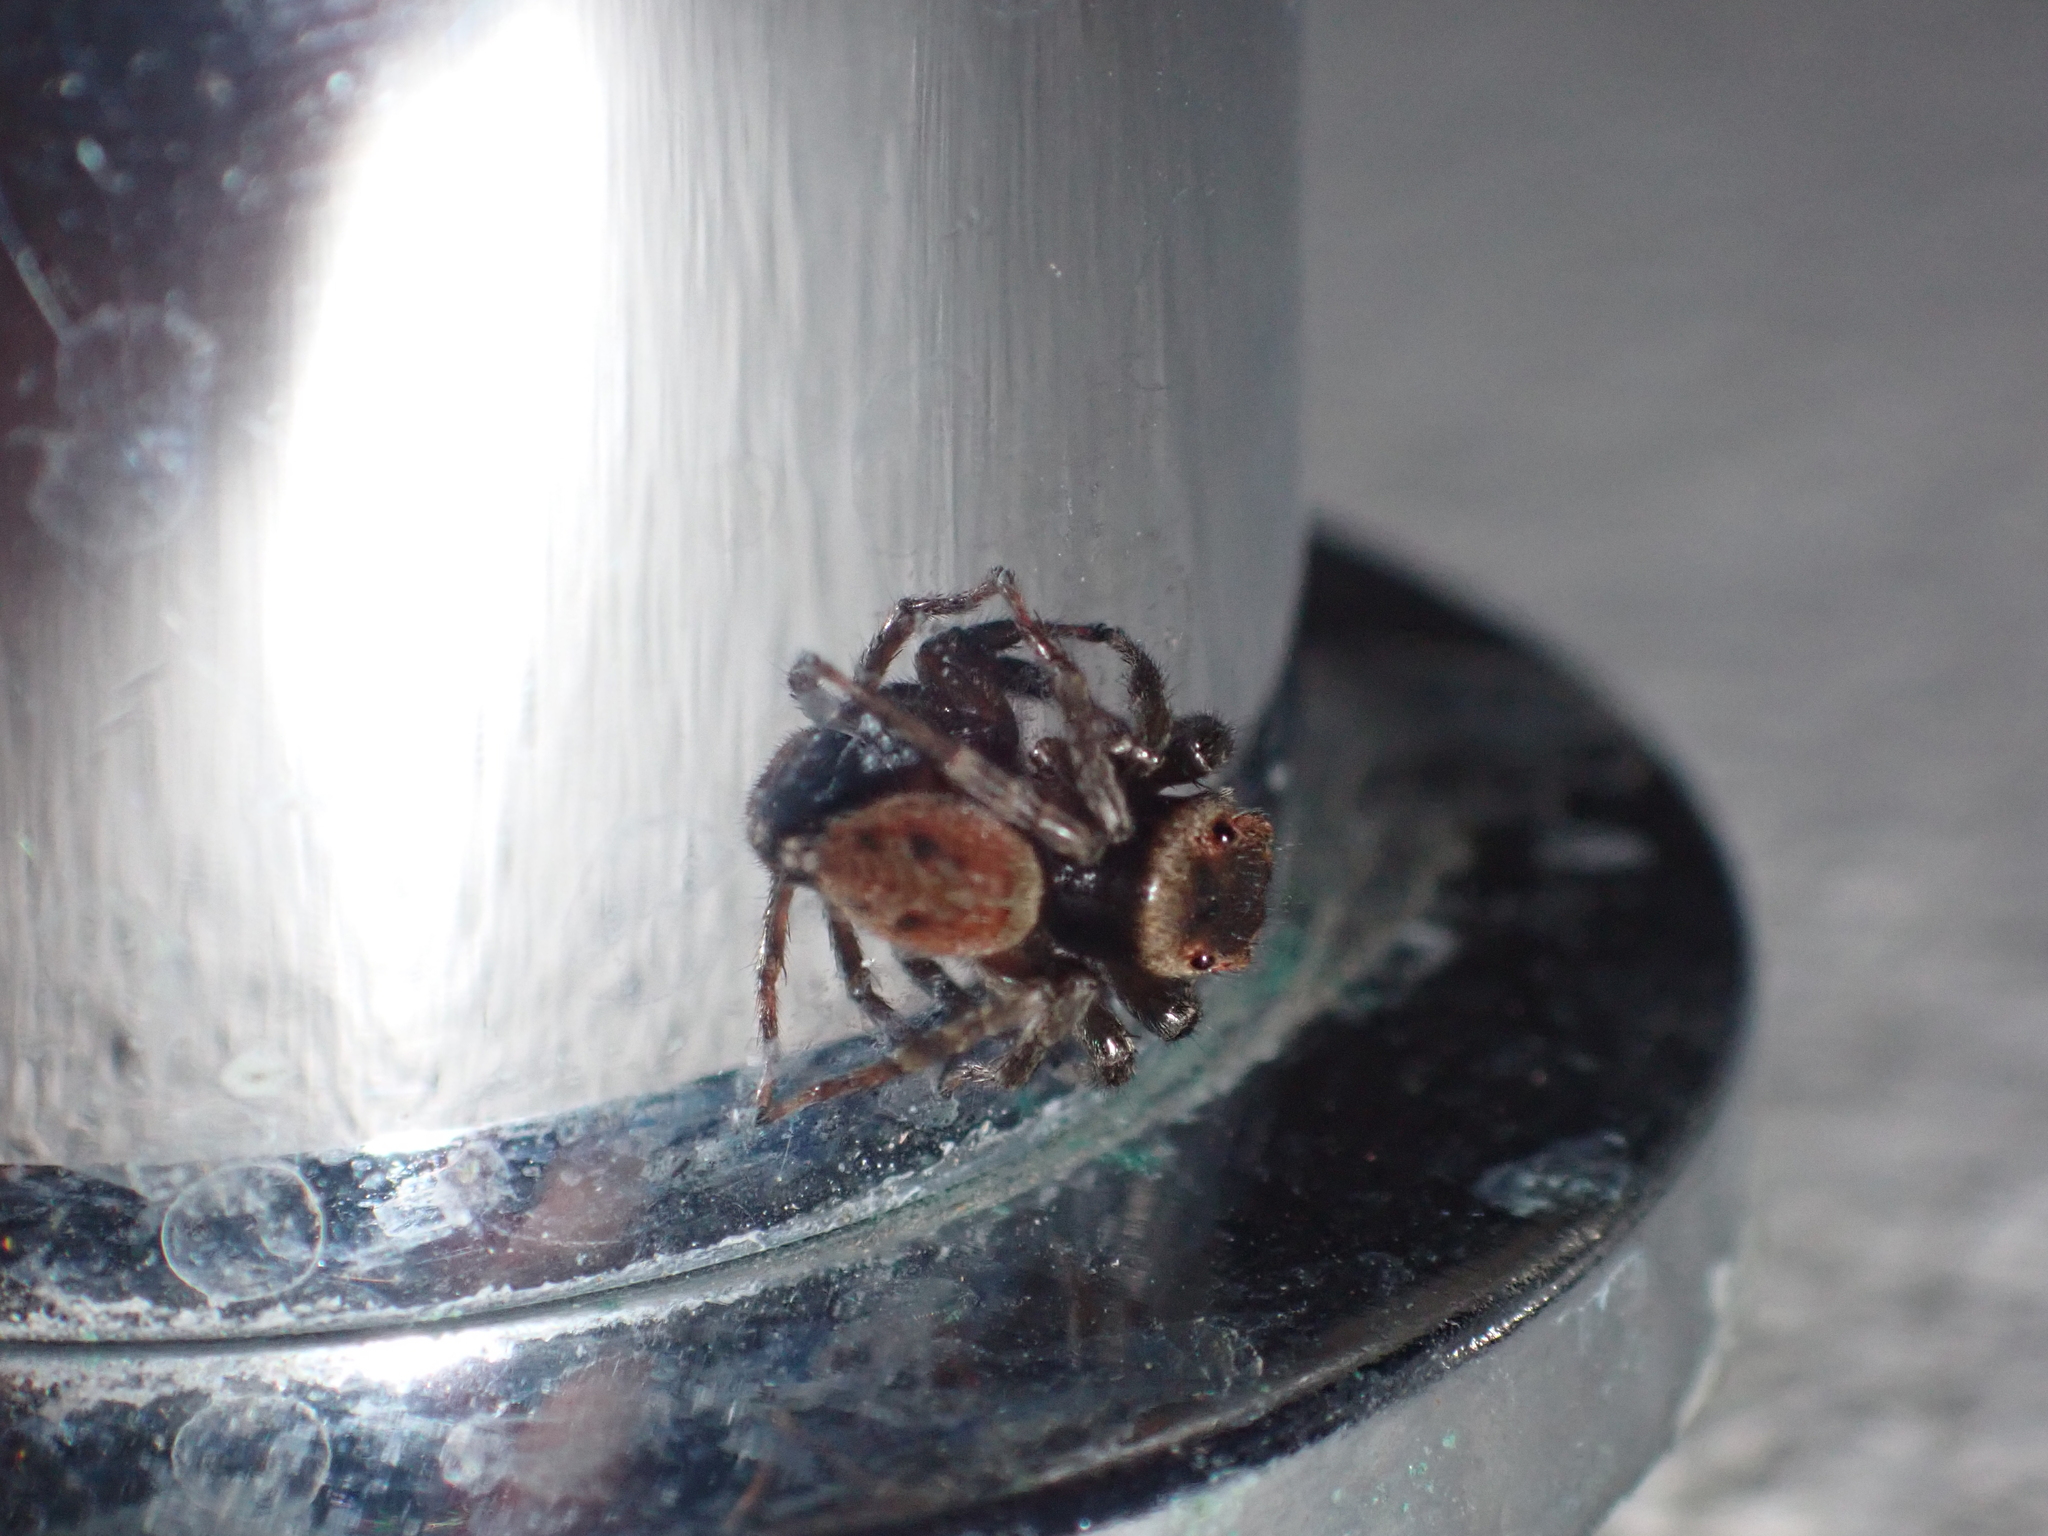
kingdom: Animalia
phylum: Arthropoda
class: Arachnida
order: Araneae
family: Salticidae
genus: Hasarius
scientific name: Hasarius adansoni
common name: Jumping spider
